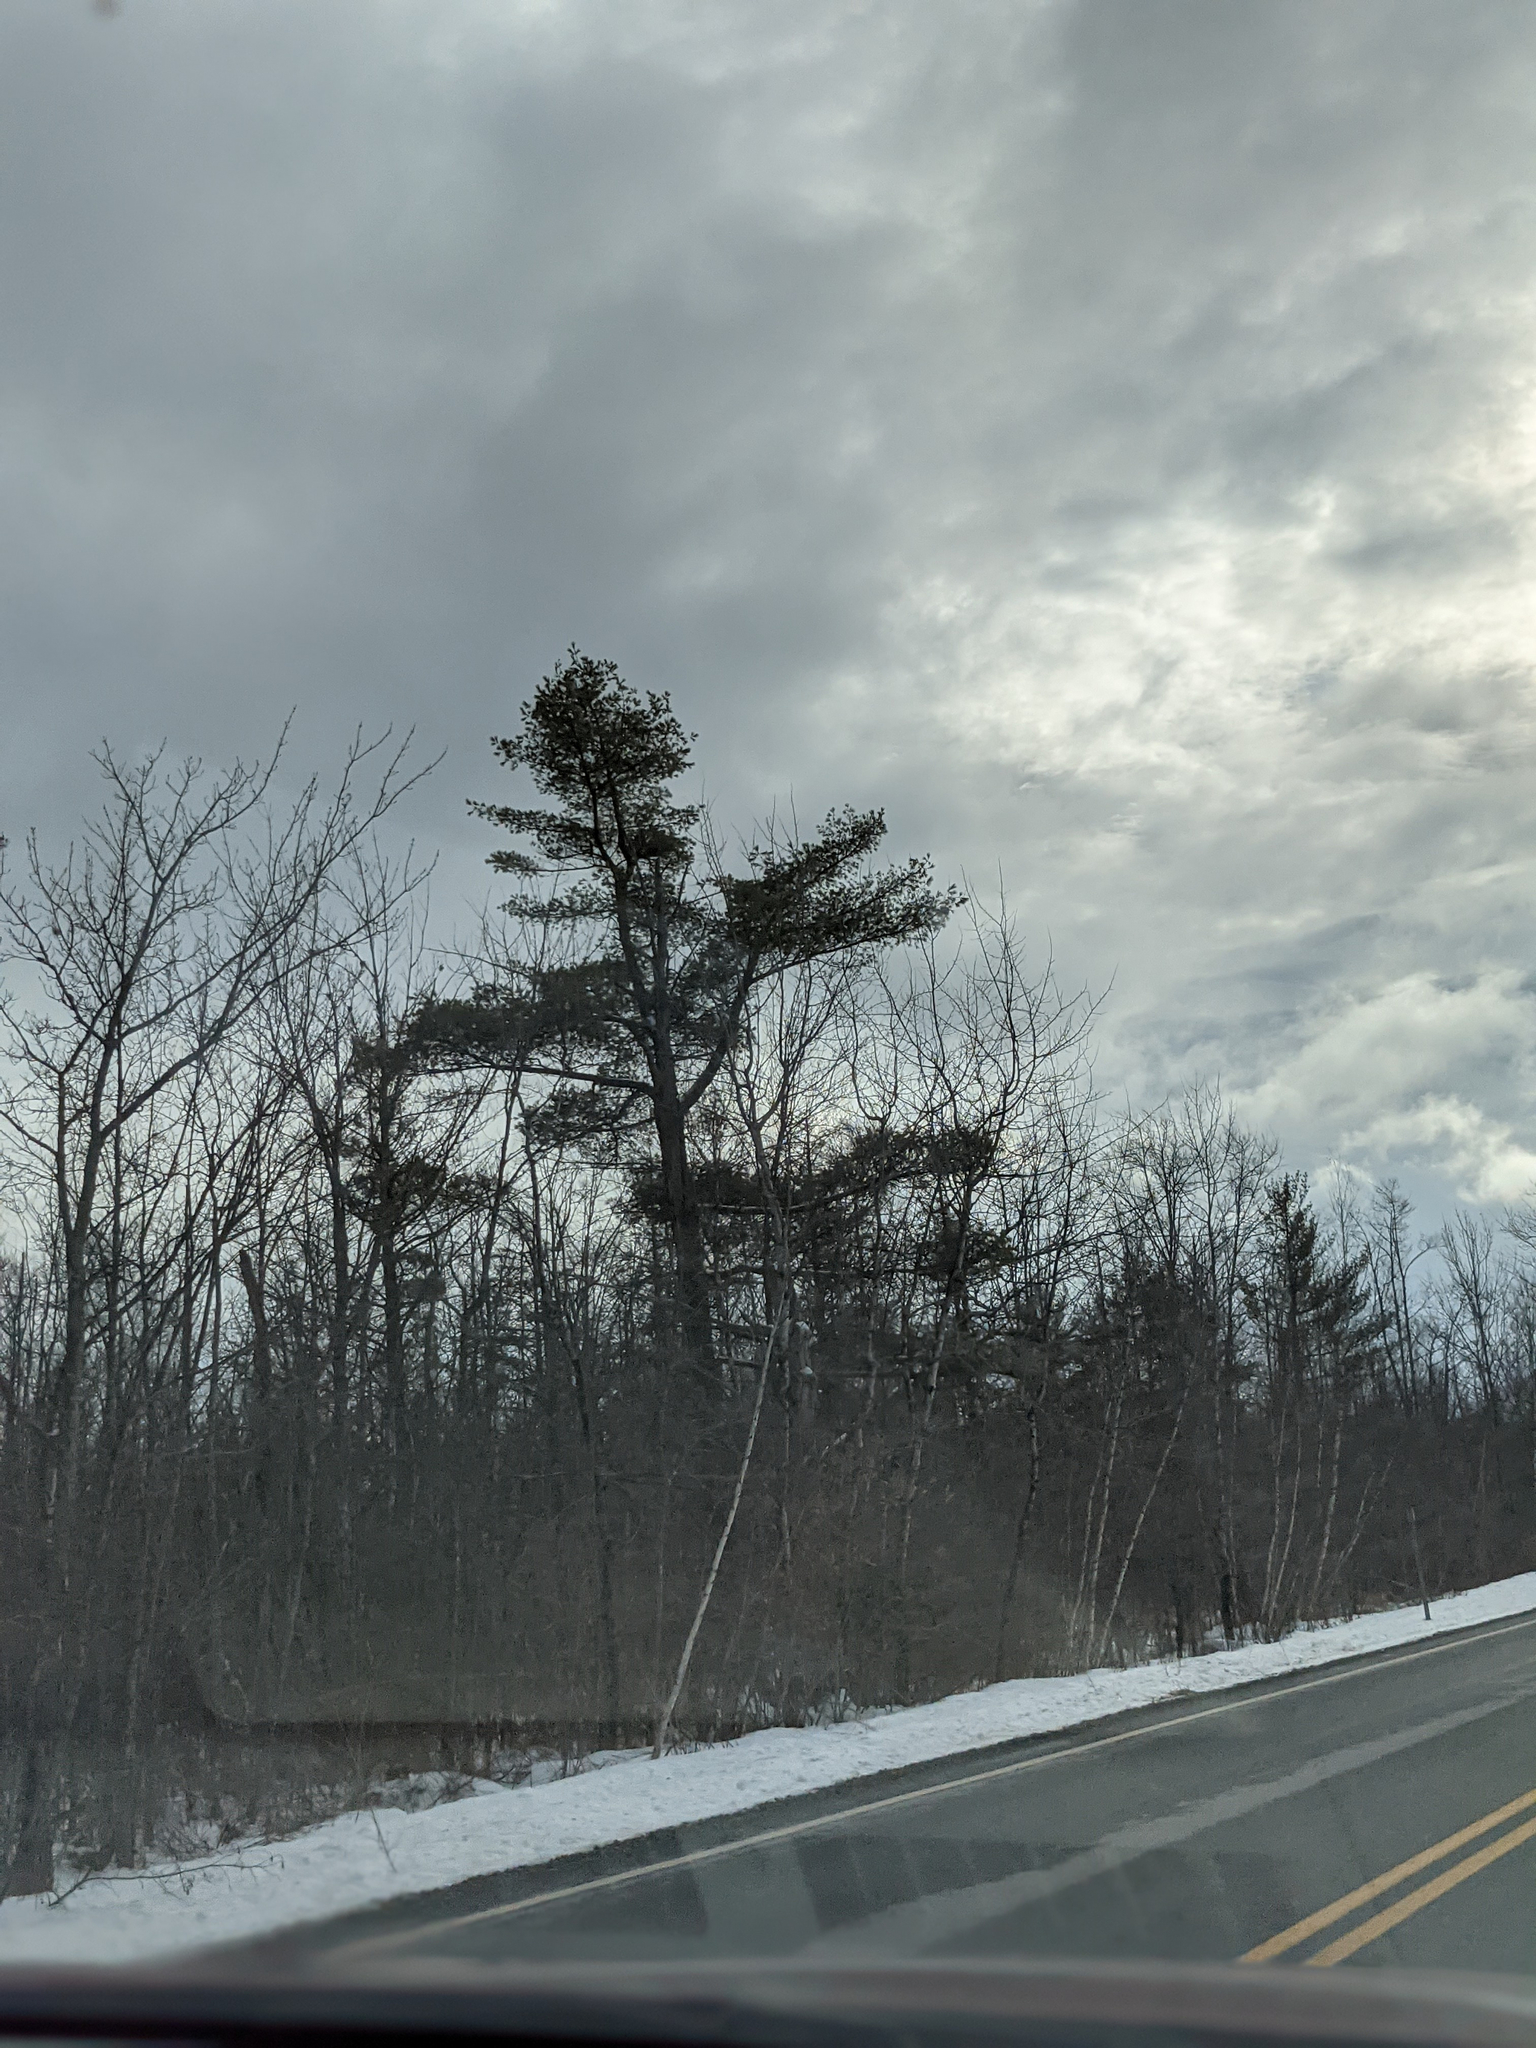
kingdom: Plantae
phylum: Tracheophyta
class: Pinopsida
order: Pinales
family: Pinaceae
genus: Pinus
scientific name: Pinus strobus
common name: Weymouth pine
